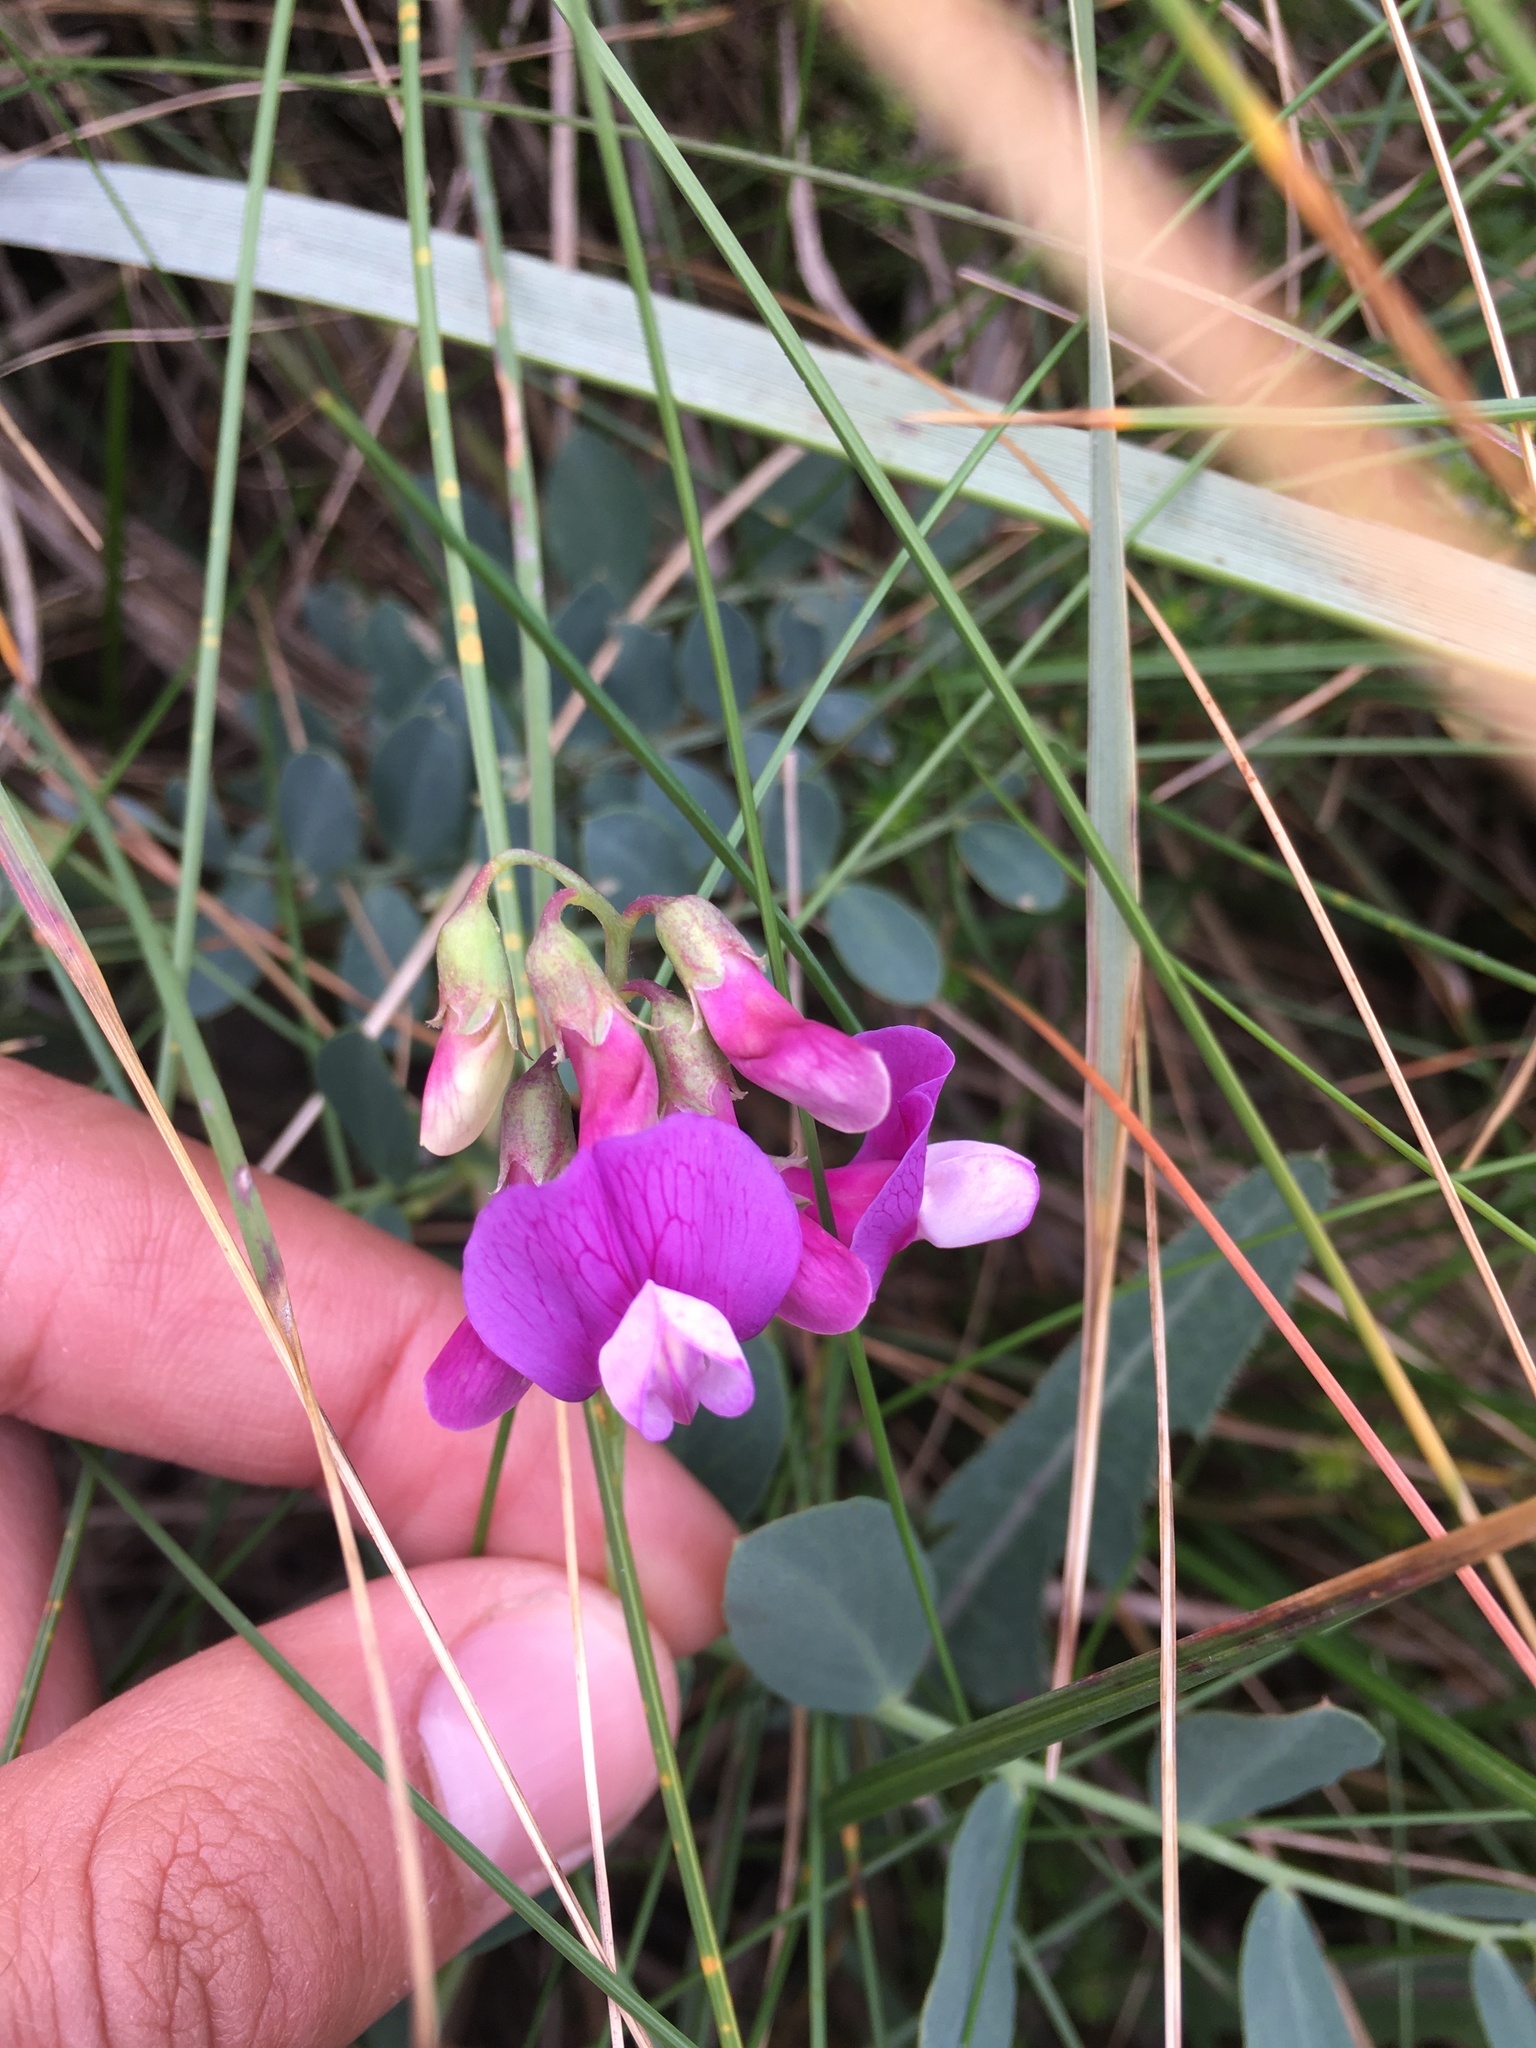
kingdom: Plantae
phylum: Tracheophyta
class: Magnoliopsida
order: Fabales
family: Fabaceae
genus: Lathyrus
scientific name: Lathyrus japonicus
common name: Sea pea
